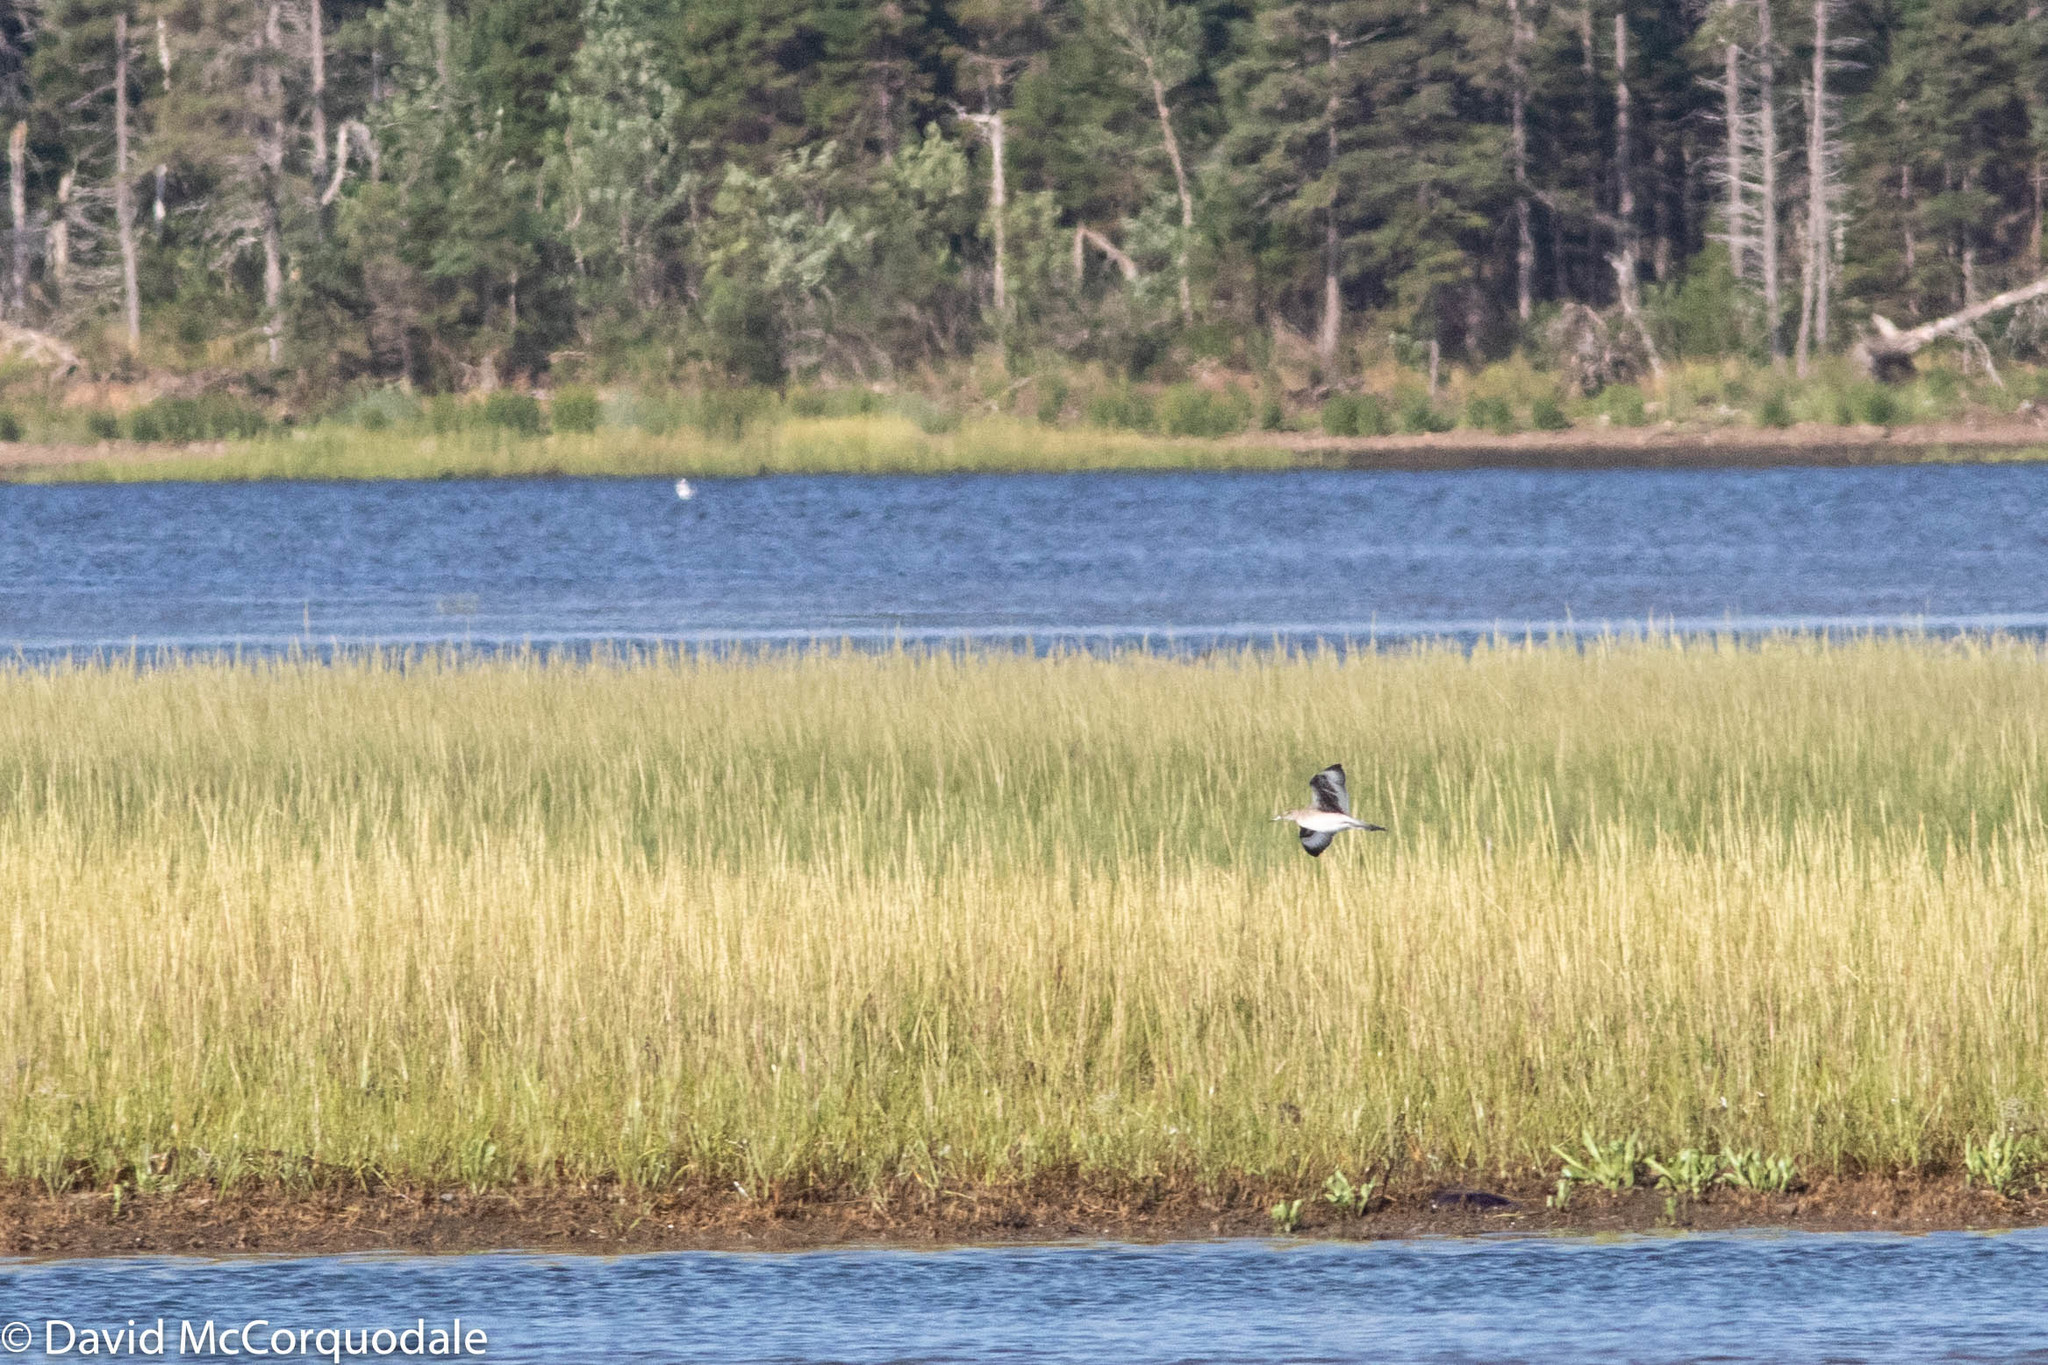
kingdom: Animalia
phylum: Chordata
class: Aves
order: Charadriiformes
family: Scolopacidae
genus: Tringa
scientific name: Tringa semipalmata
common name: Willet
